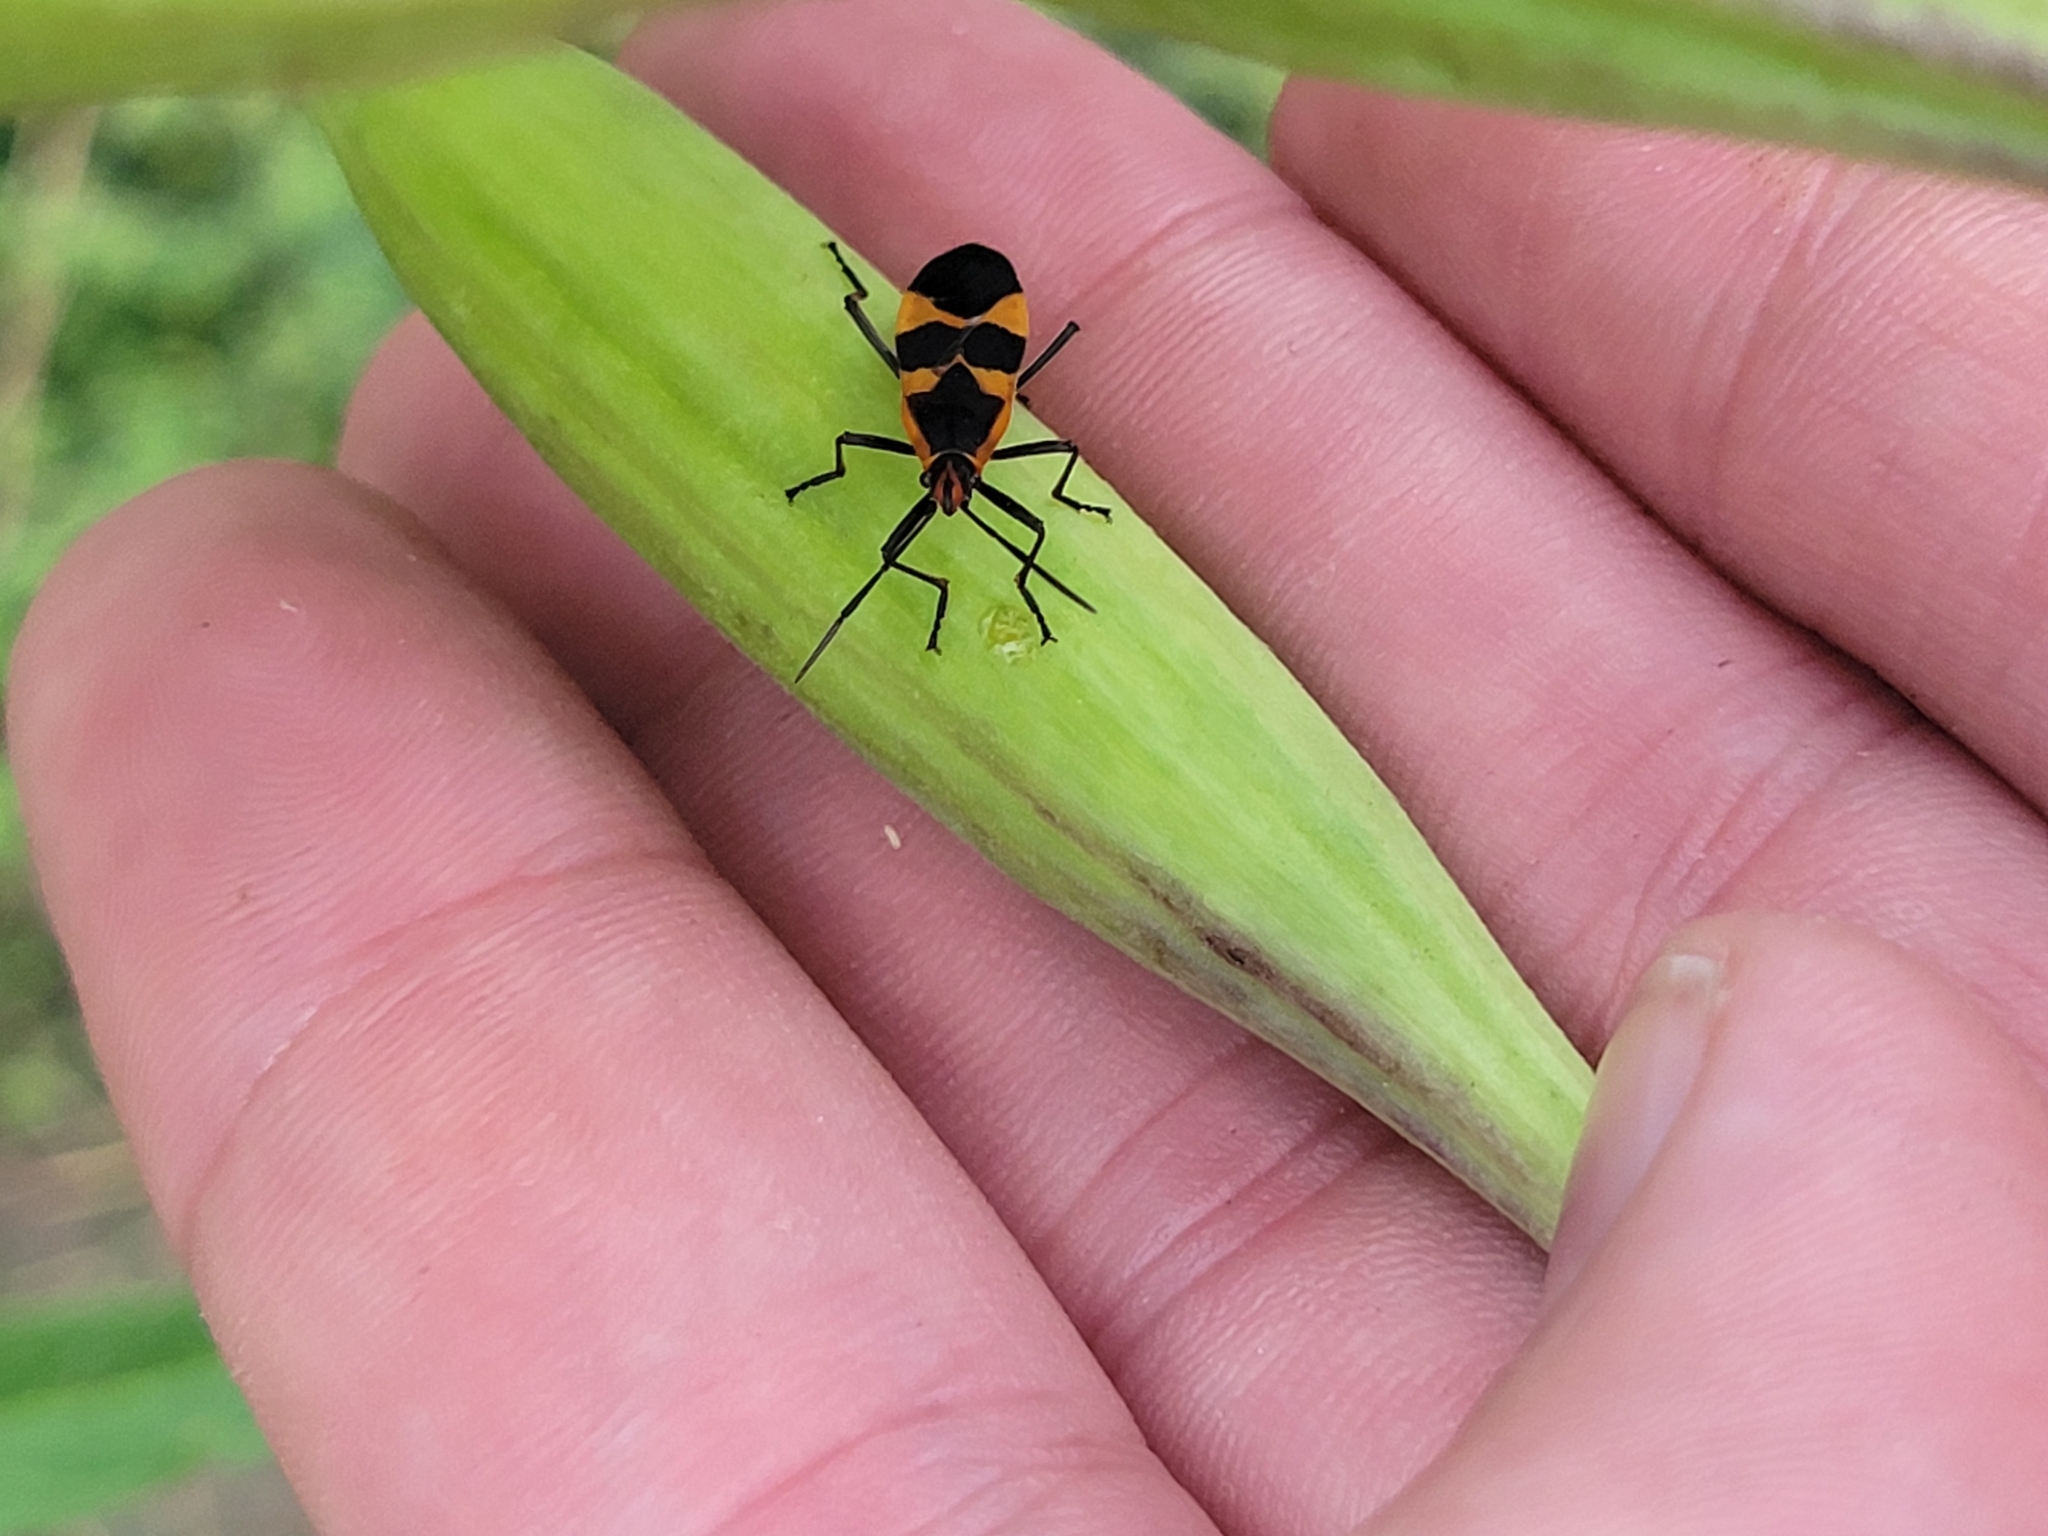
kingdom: Animalia
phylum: Arthropoda
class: Insecta
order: Hemiptera
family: Lygaeidae
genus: Oncopeltus
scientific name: Oncopeltus fasciatus
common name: Large milkweed bug
